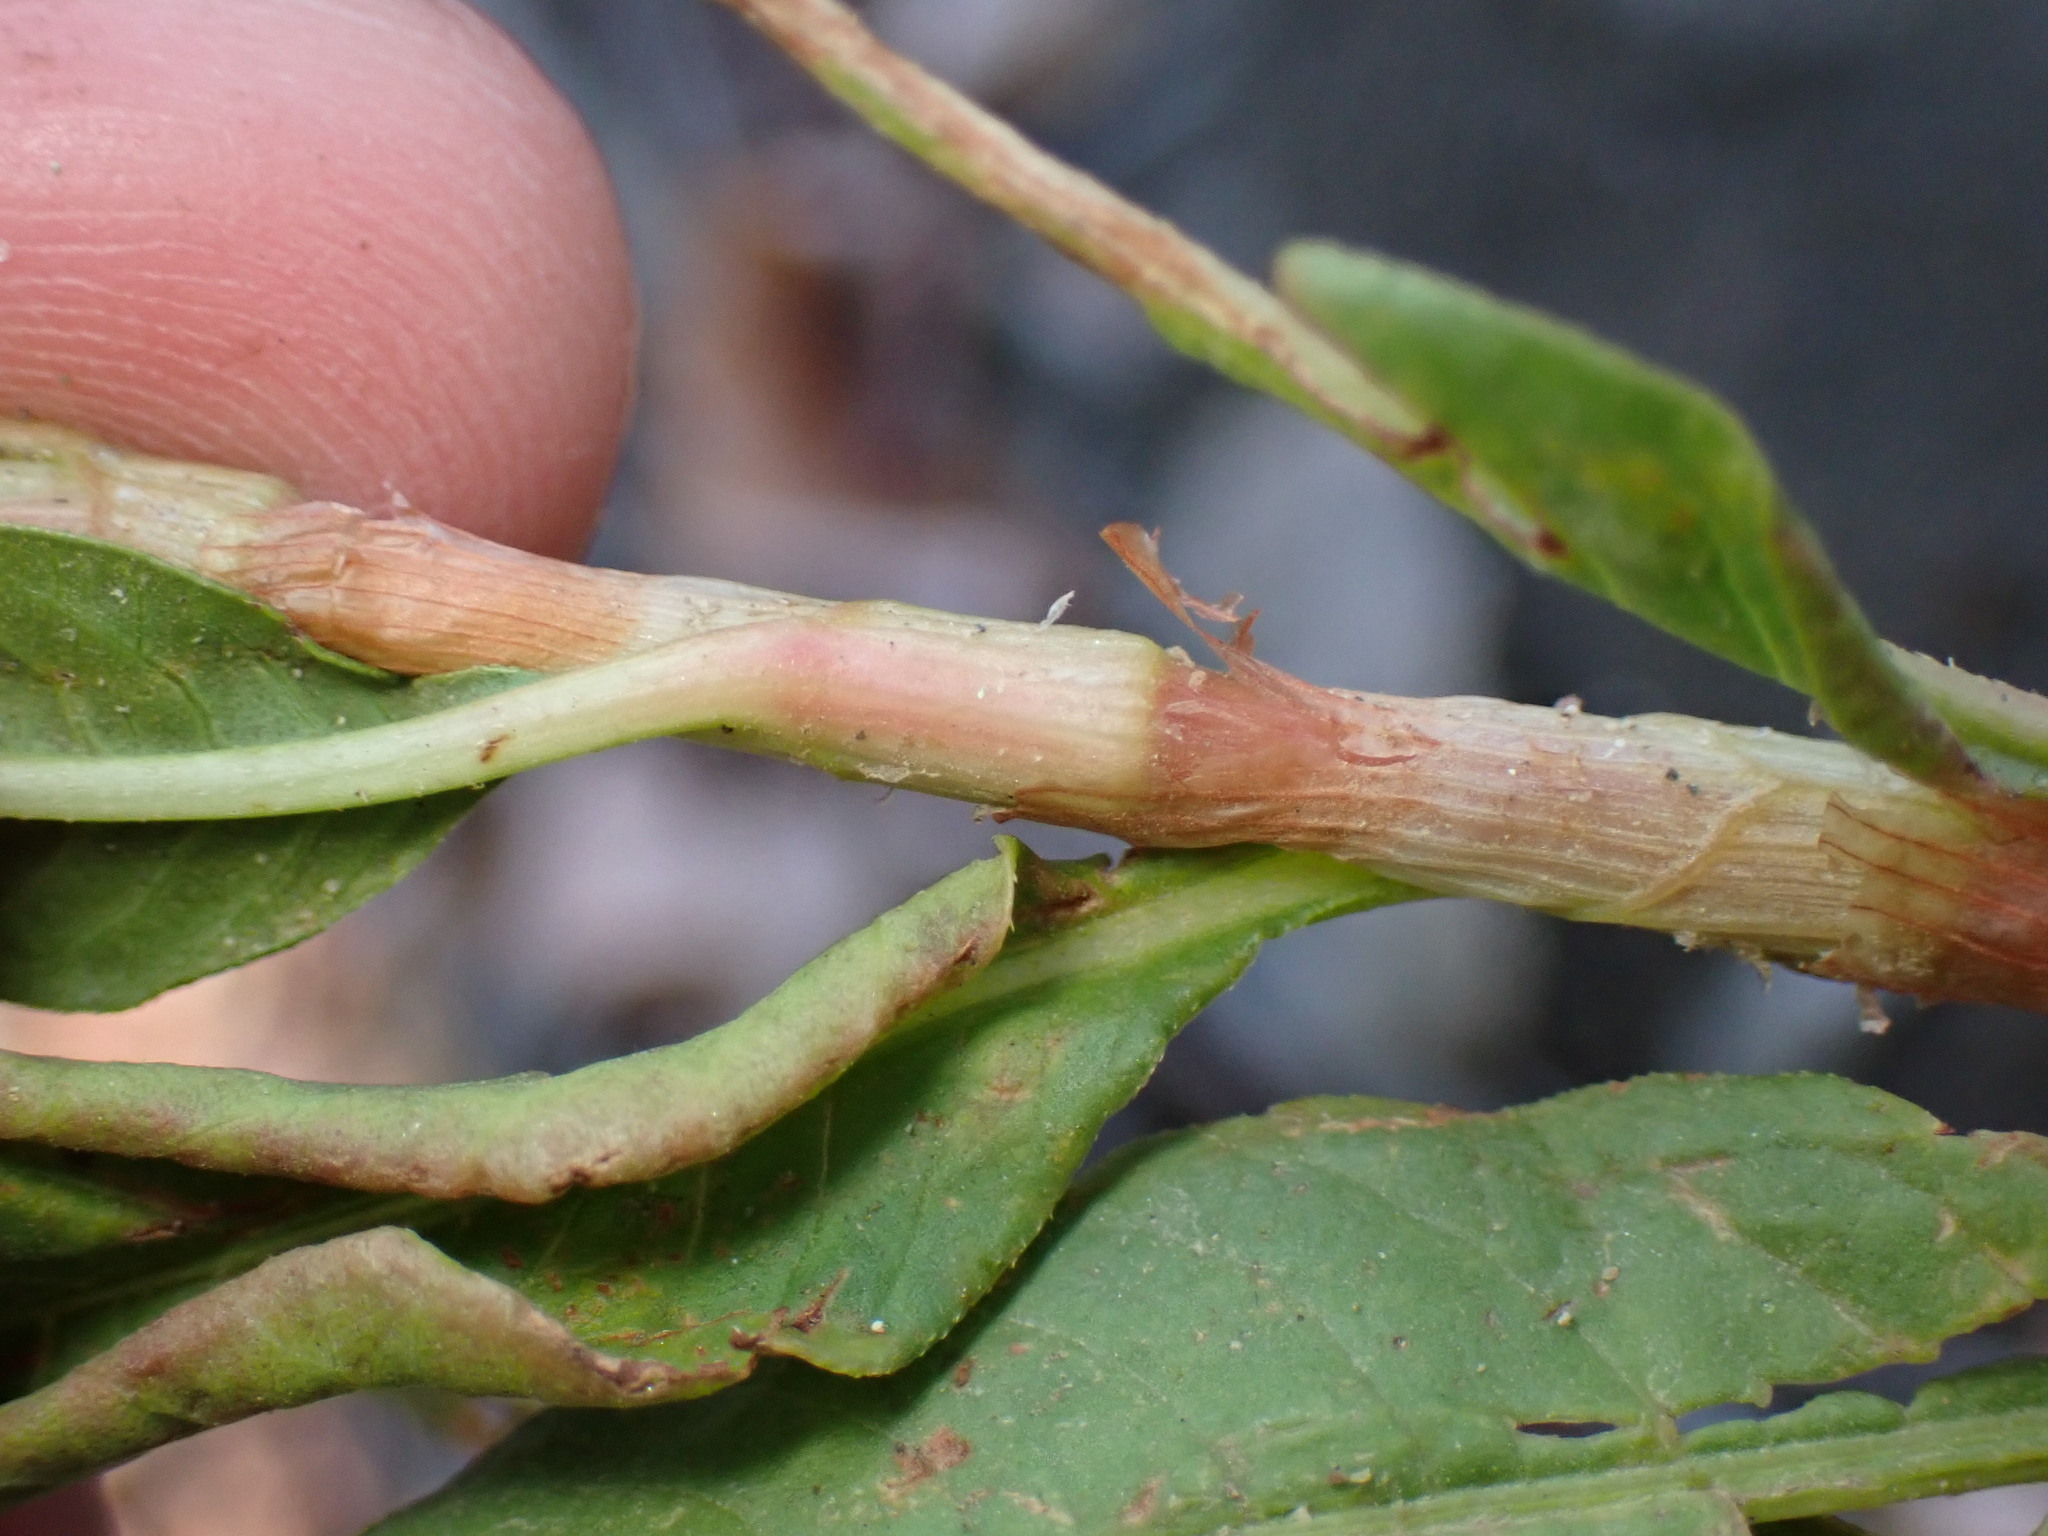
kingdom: Plantae
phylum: Tracheophyta
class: Magnoliopsida
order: Caryophyllales
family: Polygonaceae
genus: Persicaria
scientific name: Persicaria lapathifolia
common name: Curlytop knotweed
